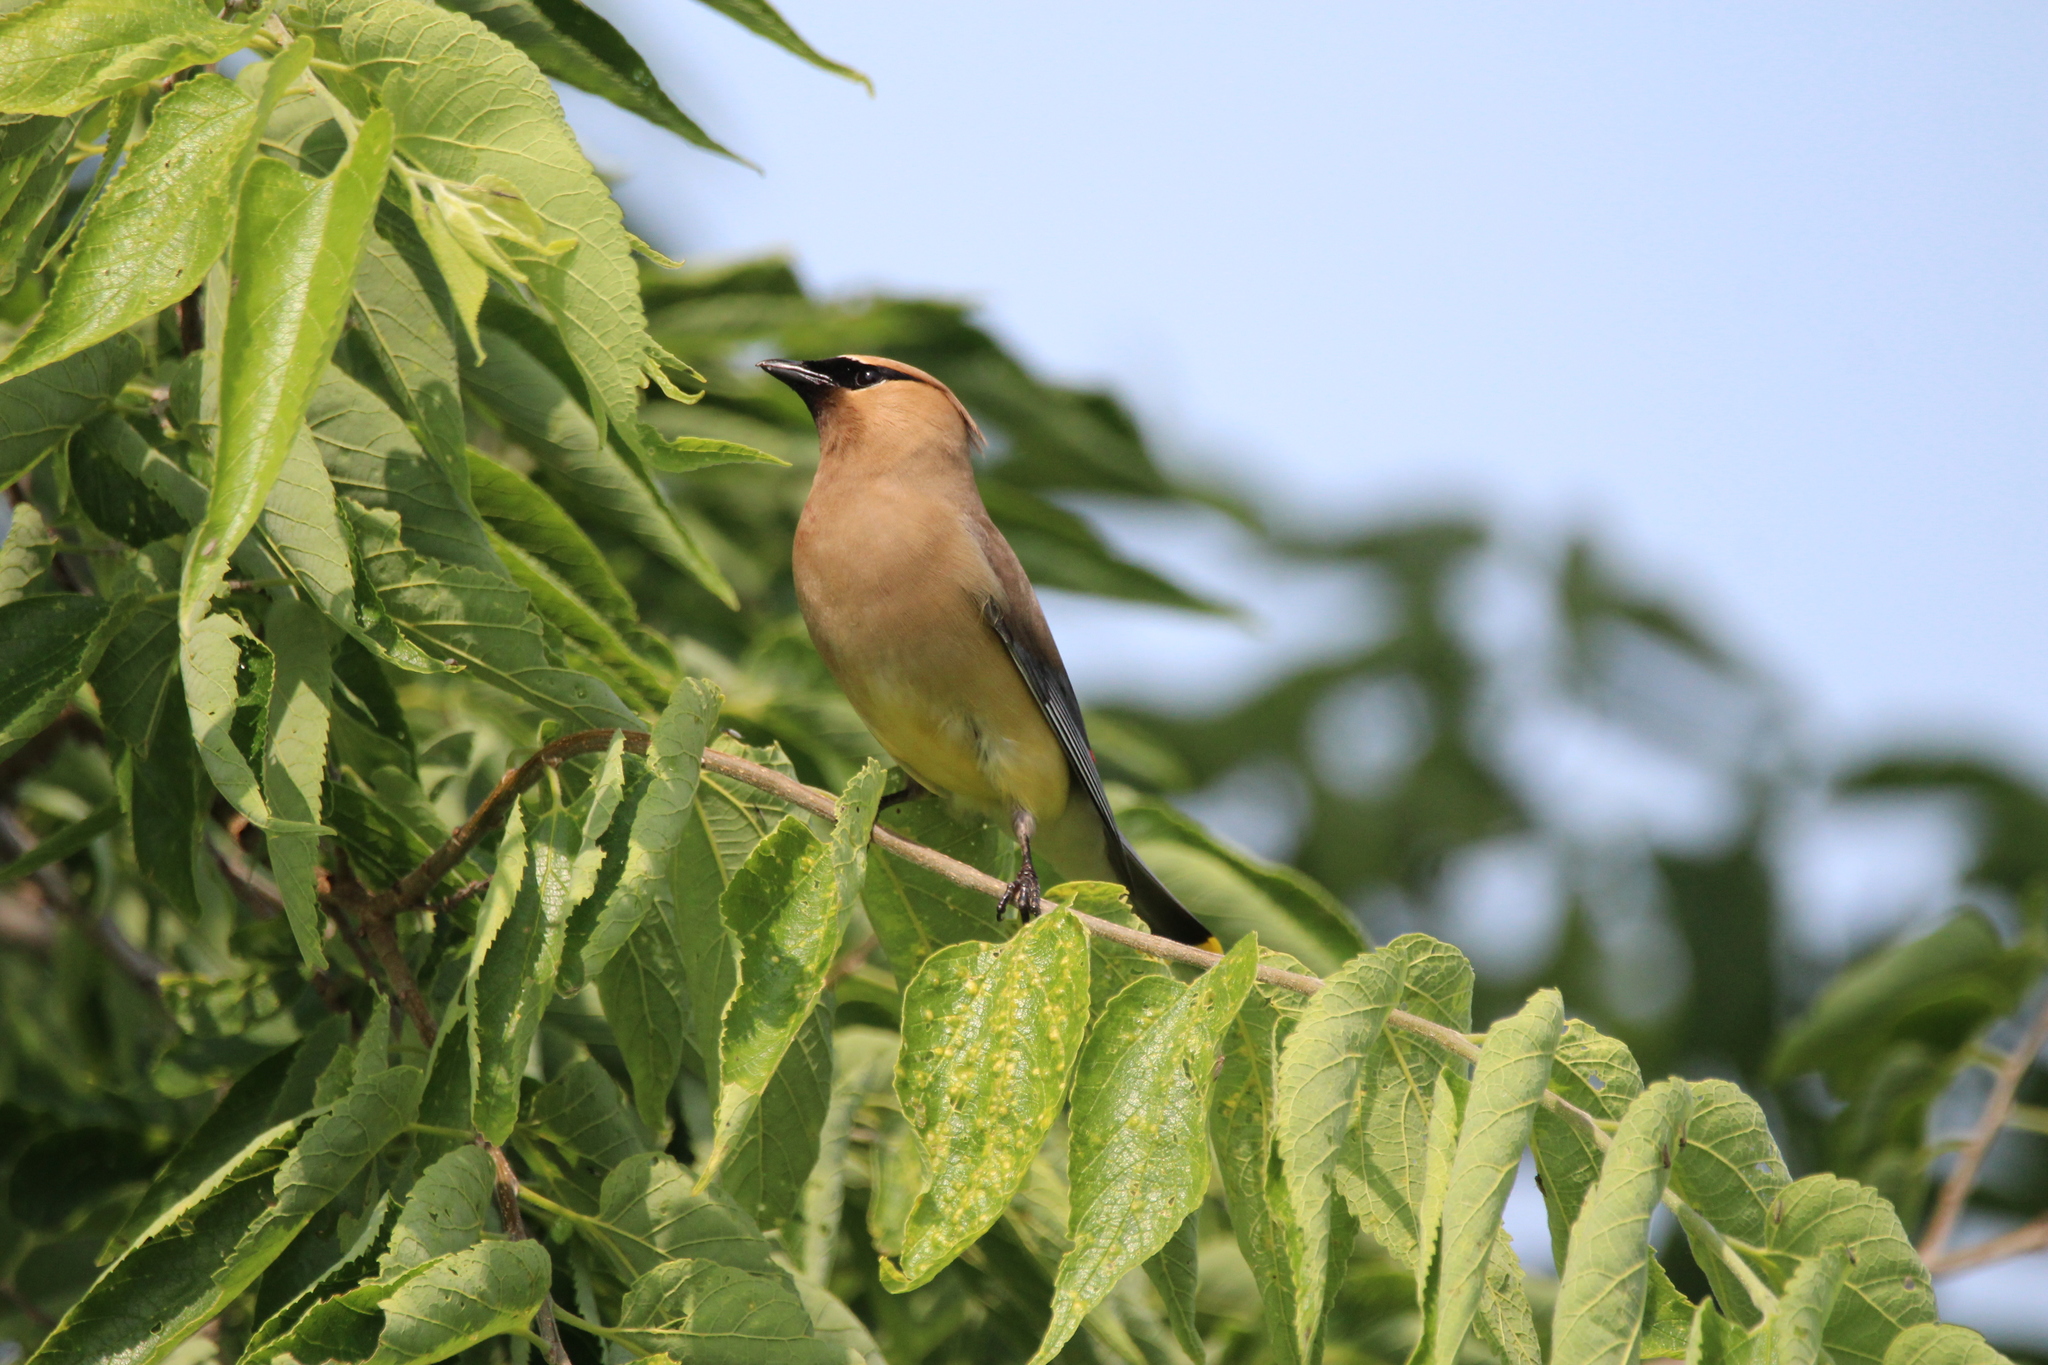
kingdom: Animalia
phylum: Chordata
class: Aves
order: Passeriformes
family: Bombycillidae
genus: Bombycilla
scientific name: Bombycilla cedrorum
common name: Cedar waxwing
